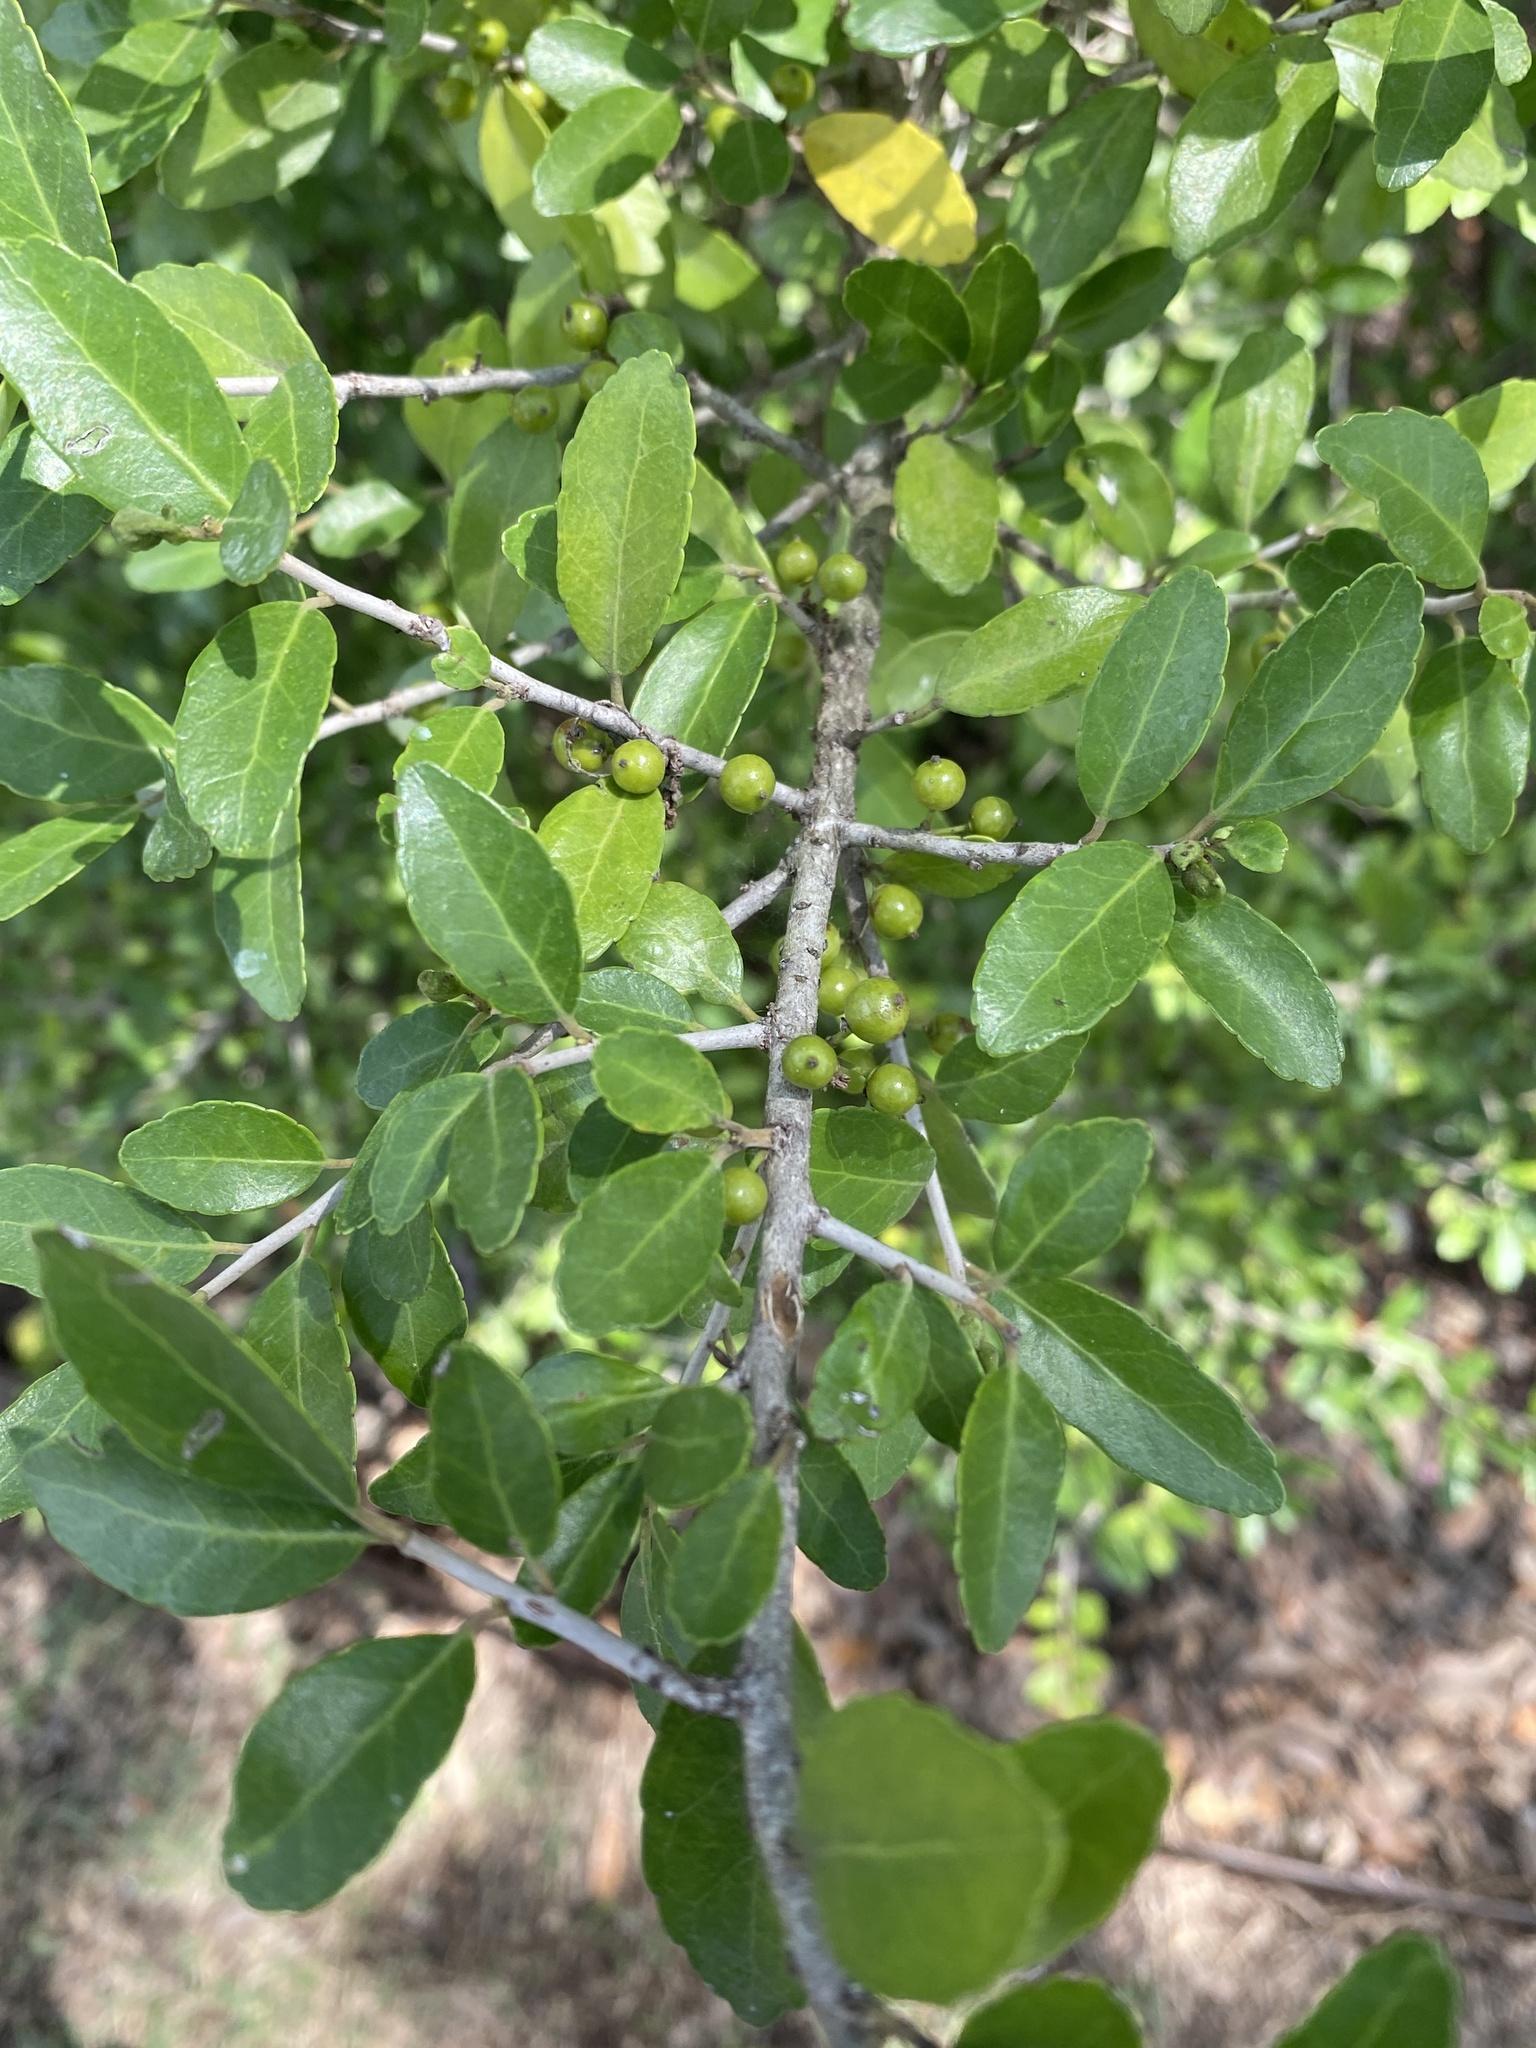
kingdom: Plantae
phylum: Tracheophyta
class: Magnoliopsida
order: Aquifoliales
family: Aquifoliaceae
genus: Ilex
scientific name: Ilex vomitoria
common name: Yaupon holly
